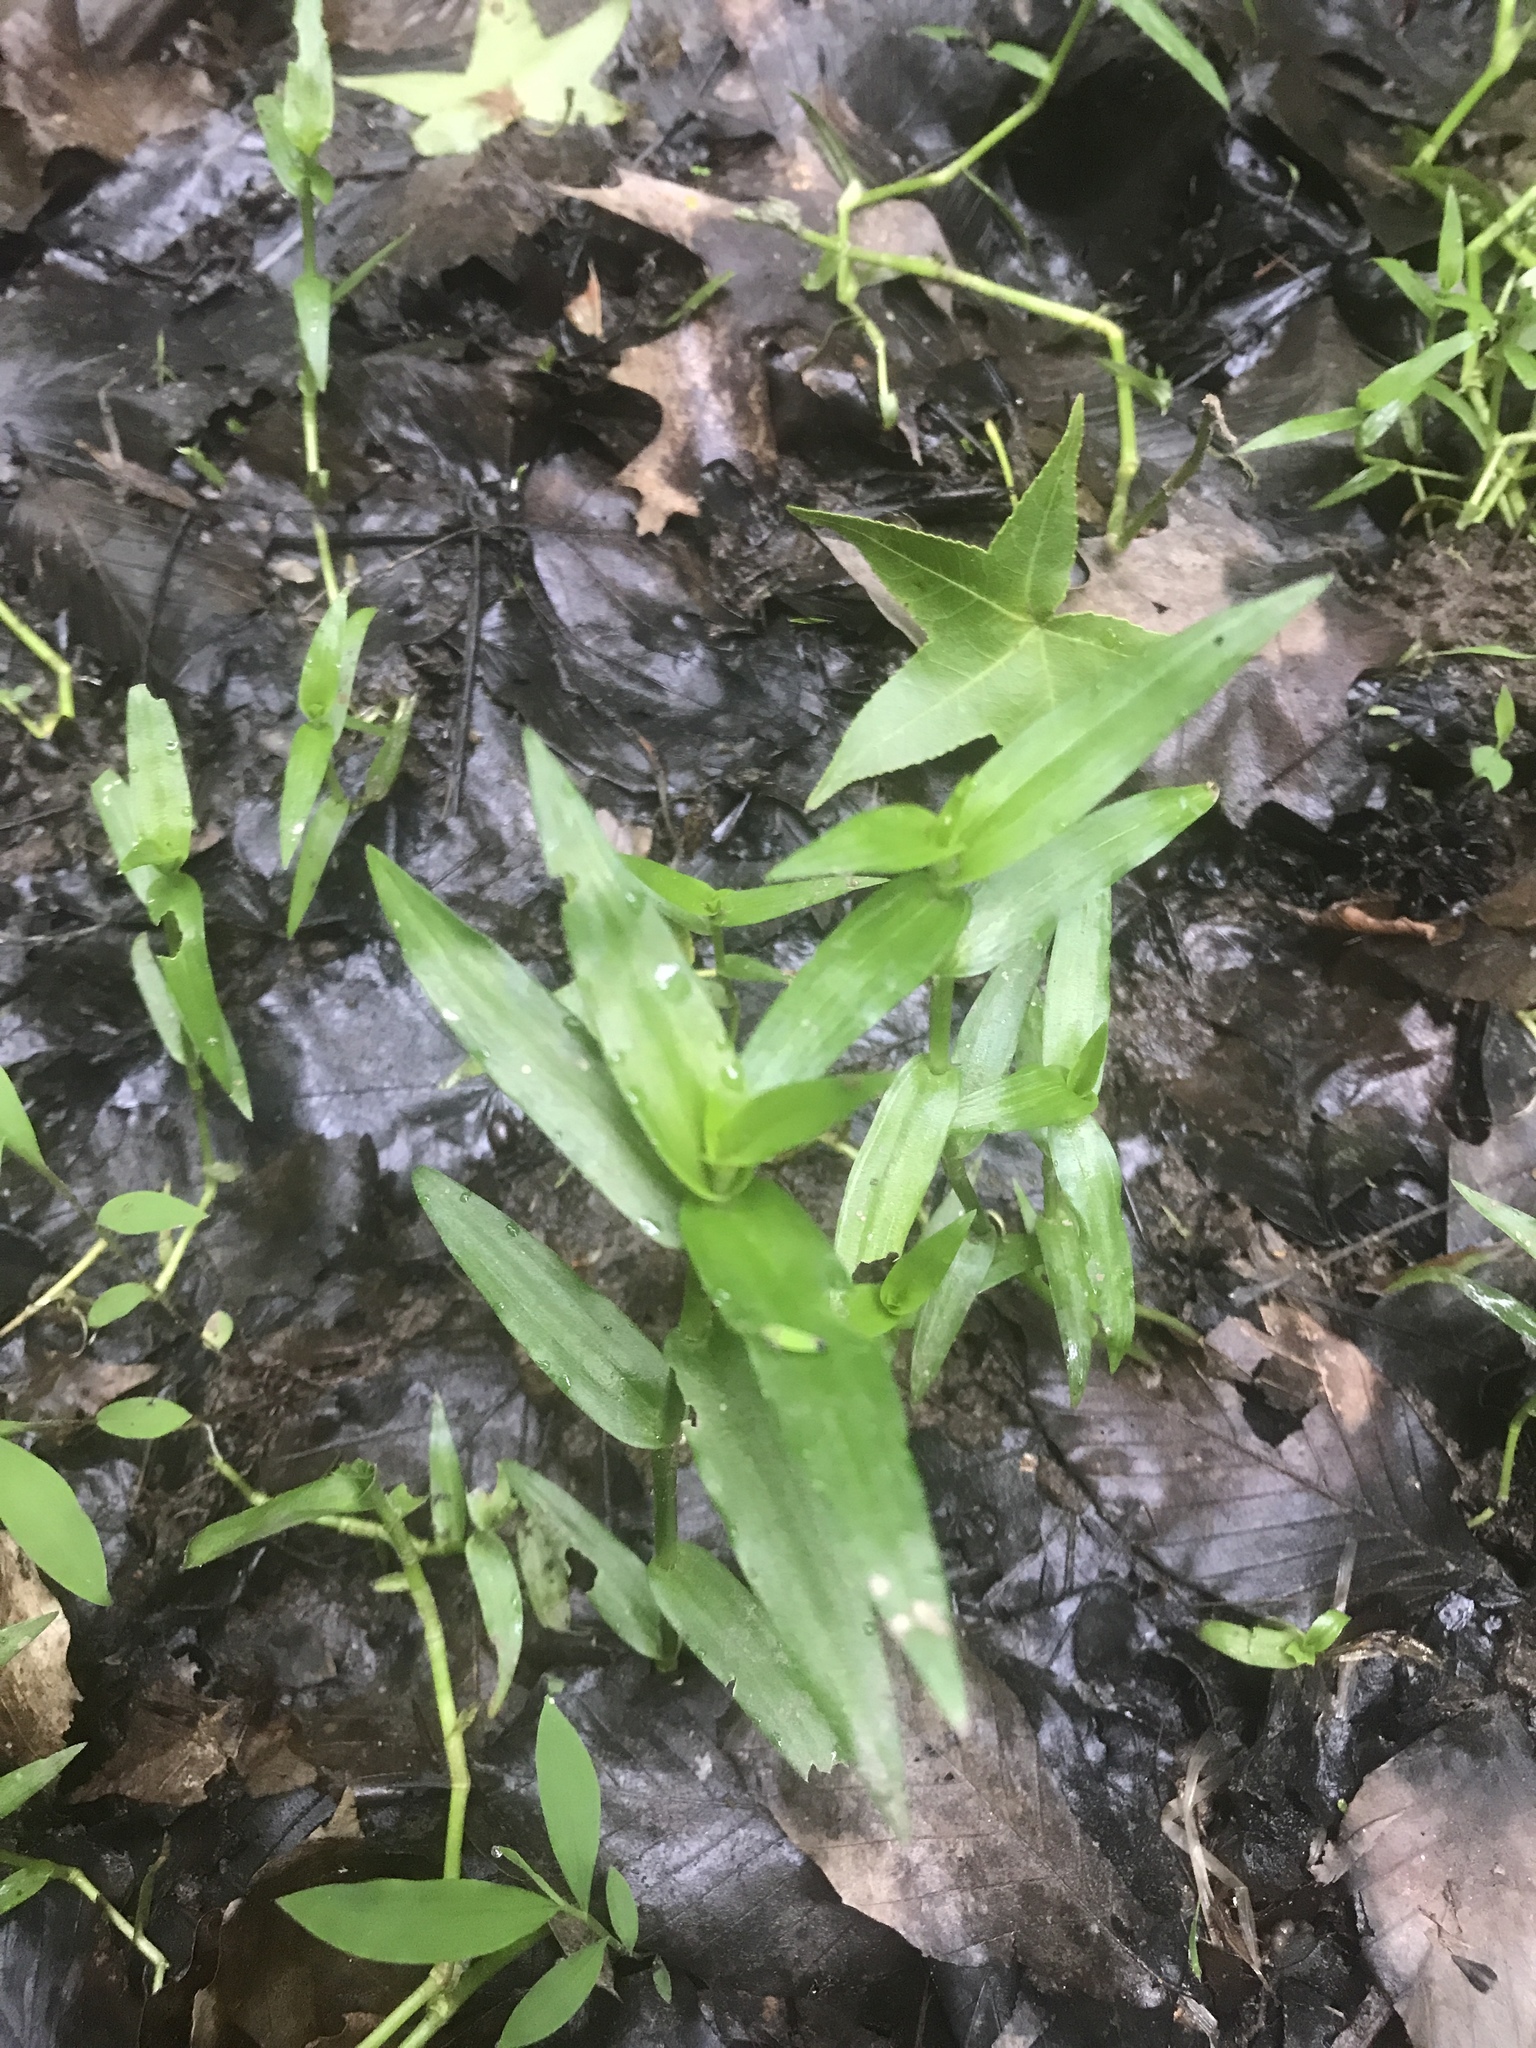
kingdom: Plantae
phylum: Tracheophyta
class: Liliopsida
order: Commelinales
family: Commelinaceae
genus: Murdannia
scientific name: Murdannia keisak
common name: Wartremoving herb
